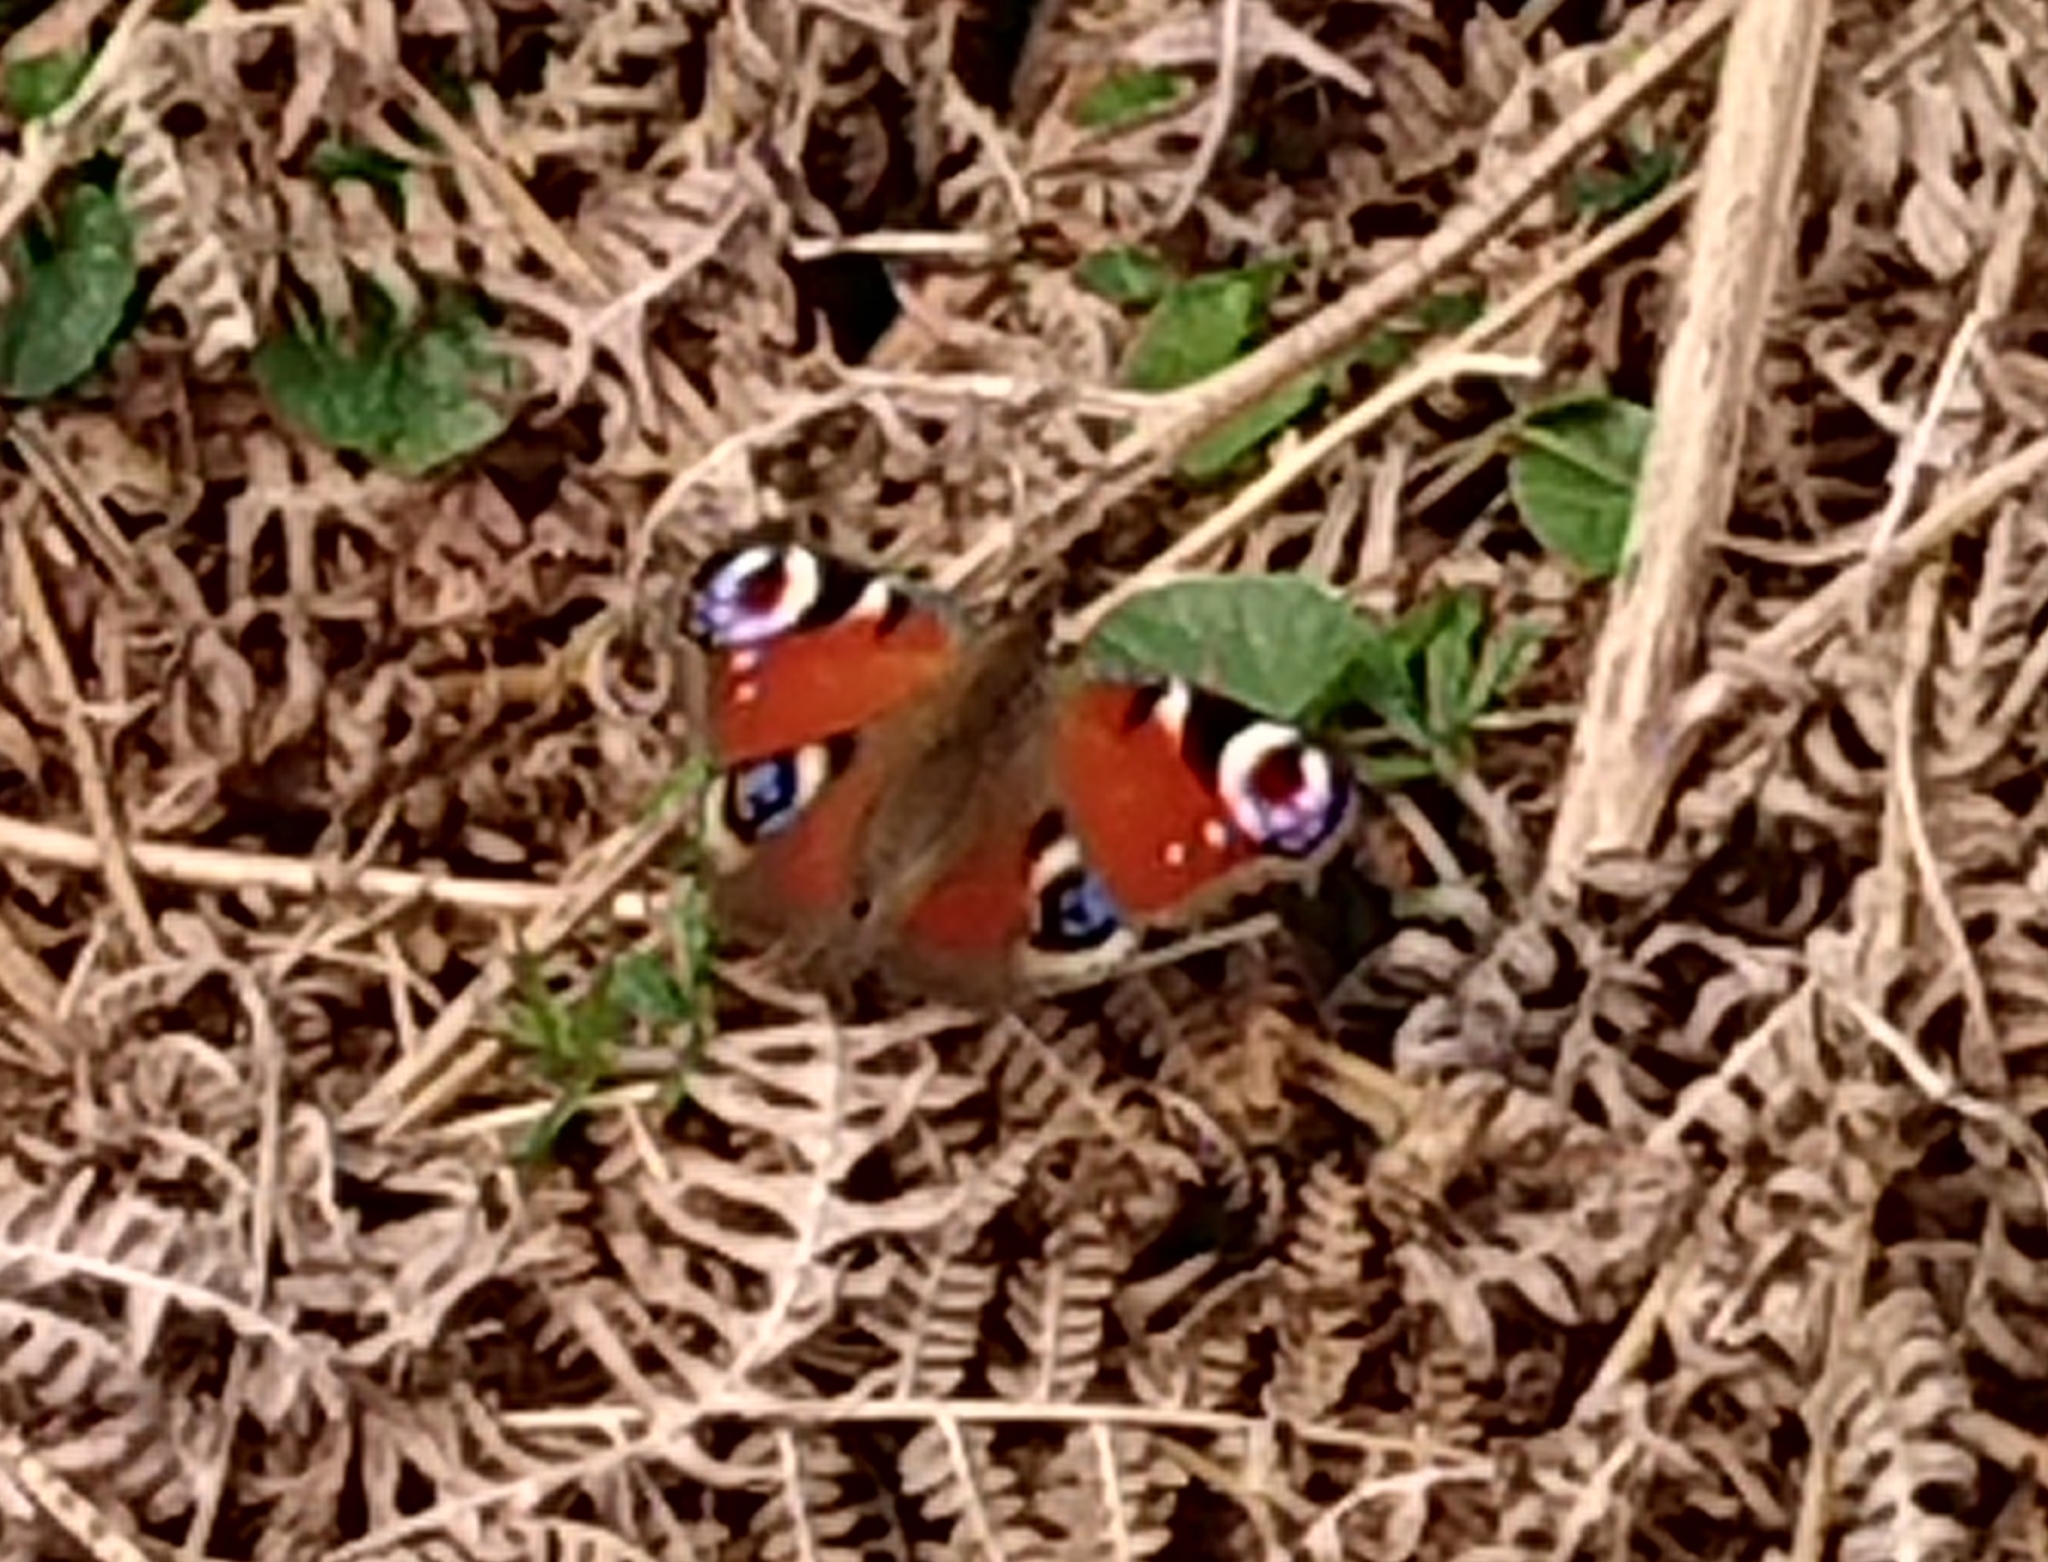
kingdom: Animalia
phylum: Arthropoda
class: Insecta
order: Lepidoptera
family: Nymphalidae
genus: Aglais
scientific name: Aglais io
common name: Peacock
